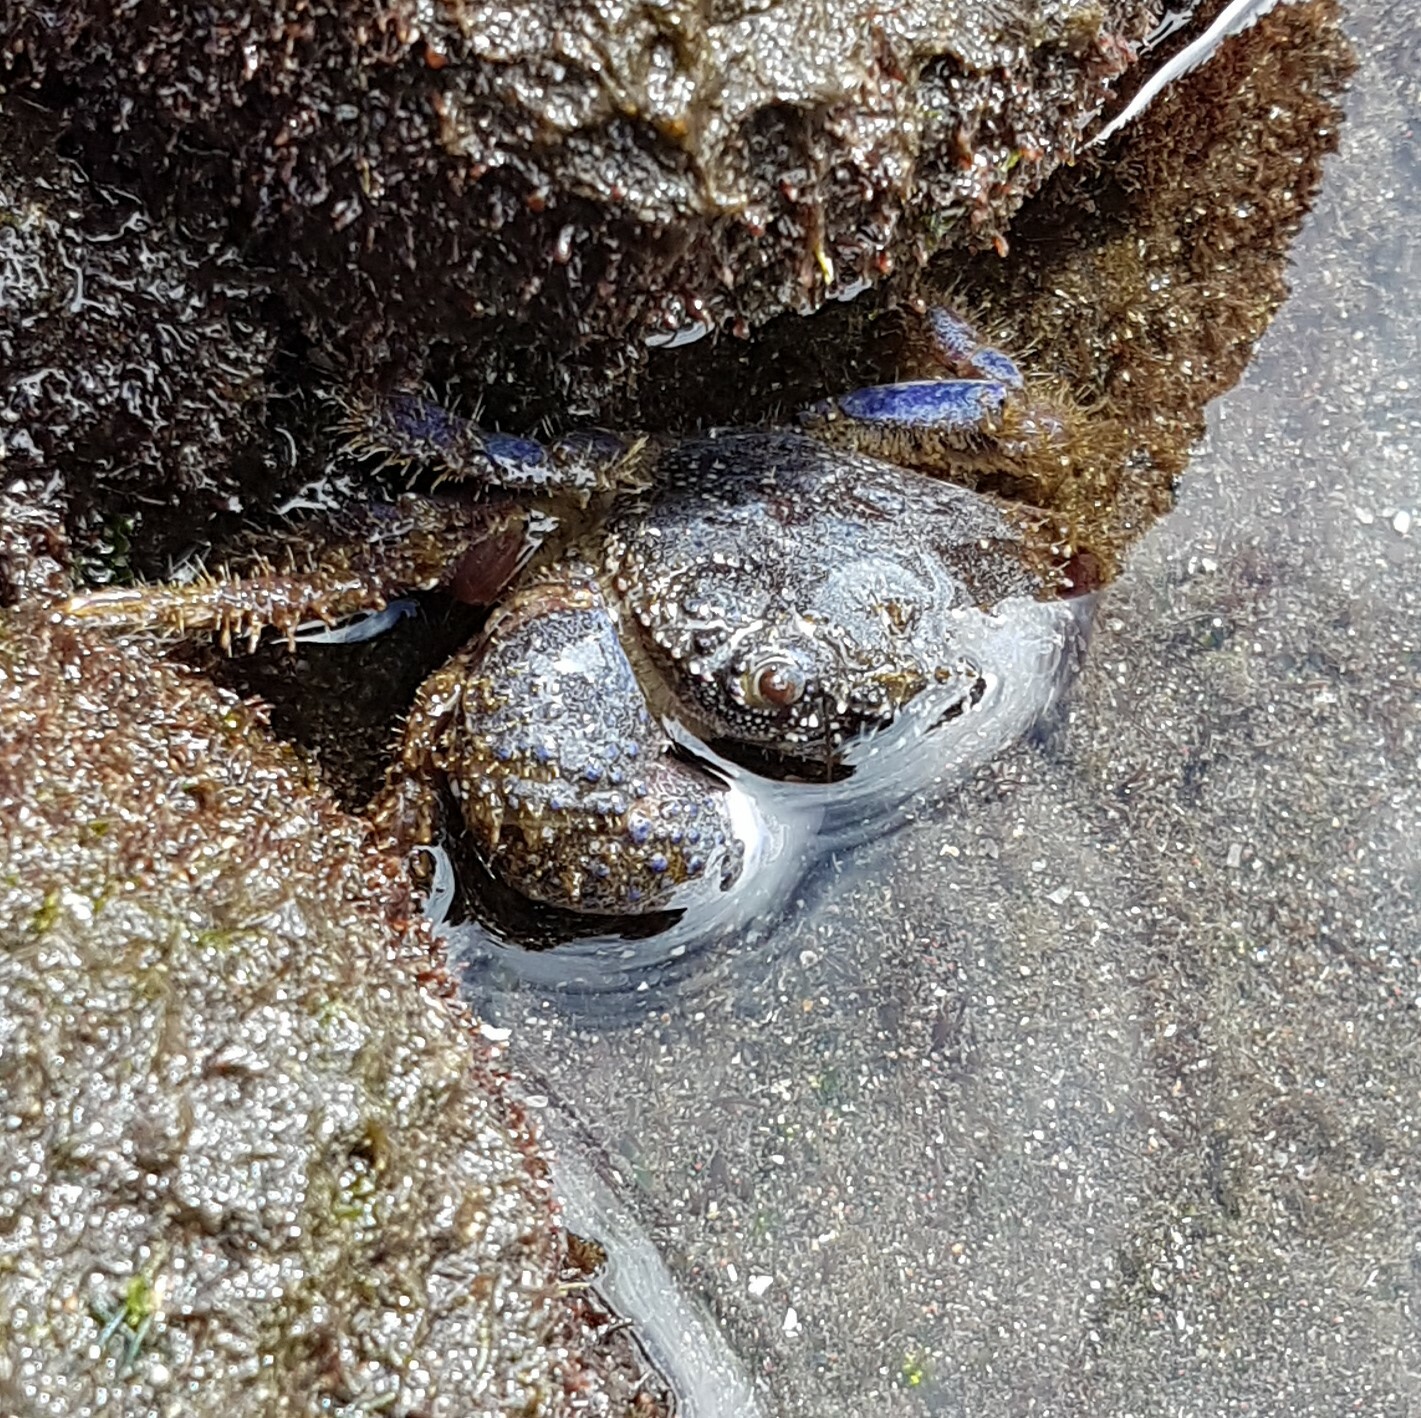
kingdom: Animalia
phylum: Arthropoda
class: Malacostraca
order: Decapoda
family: Eriphiidae
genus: Eriphia
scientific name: Eriphia verrucosa
